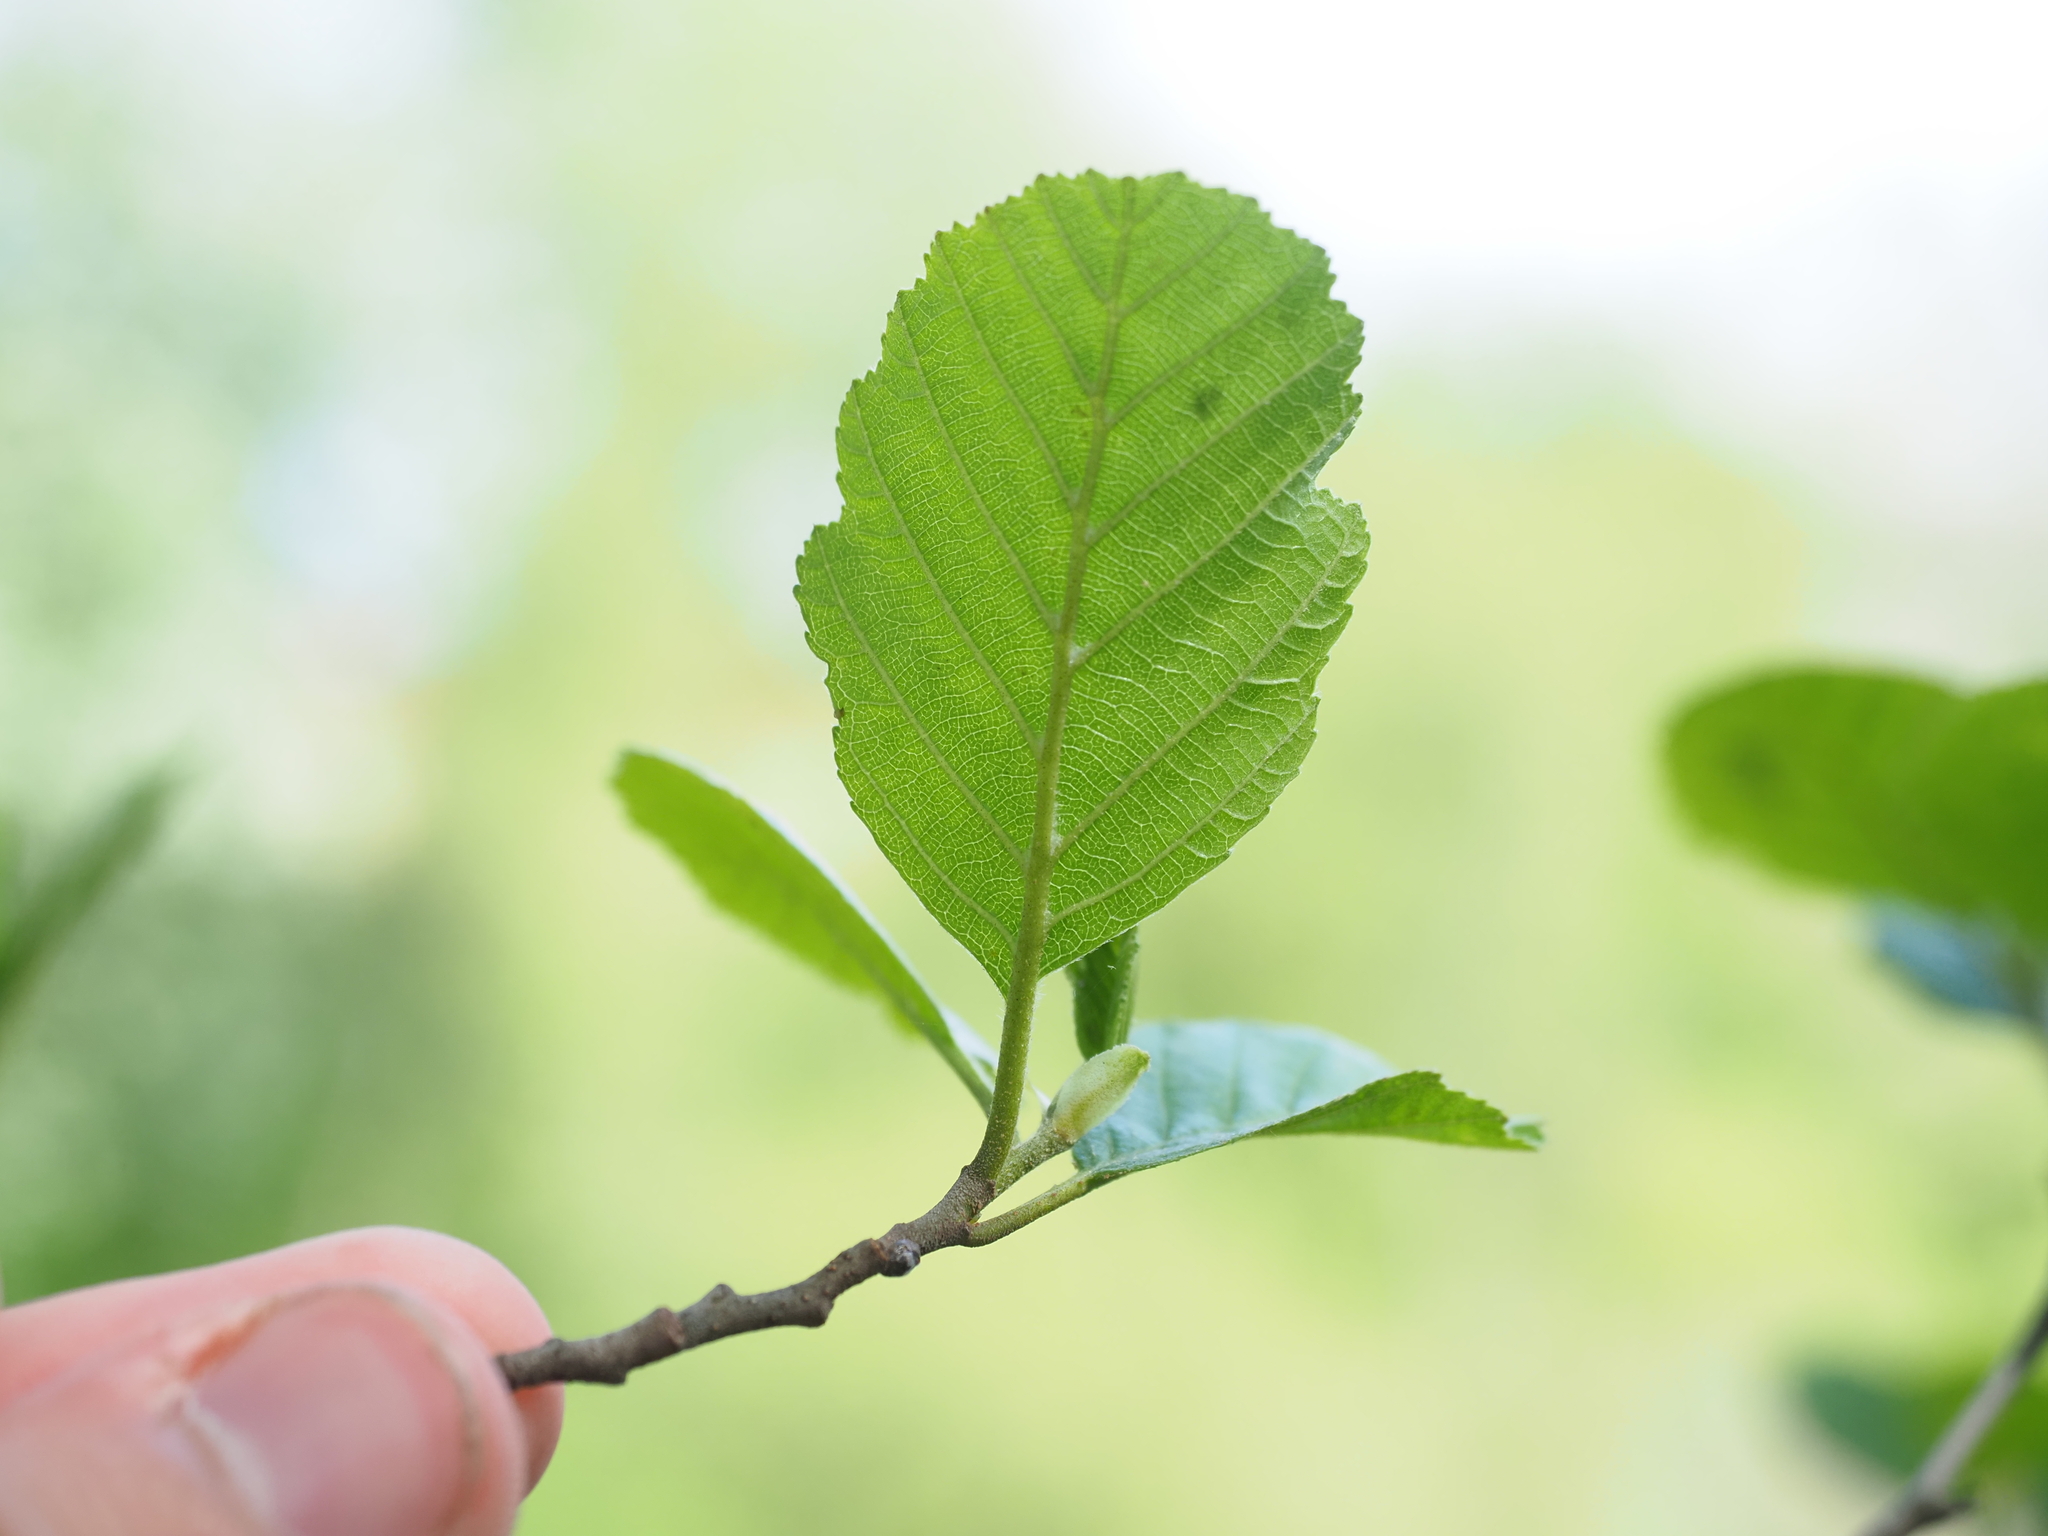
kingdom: Plantae
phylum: Tracheophyta
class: Magnoliopsida
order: Fagales
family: Betulaceae
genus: Alnus
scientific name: Alnus glutinosa
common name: Black alder
